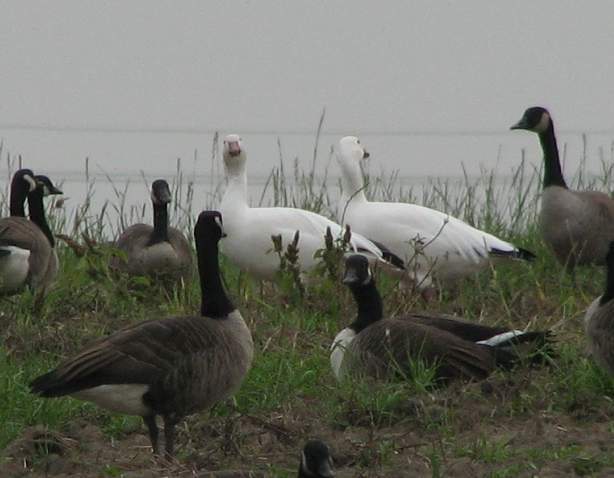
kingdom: Animalia
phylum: Chordata
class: Aves
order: Anseriformes
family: Anatidae
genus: Anser
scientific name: Anser caerulescens
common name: Snow goose
